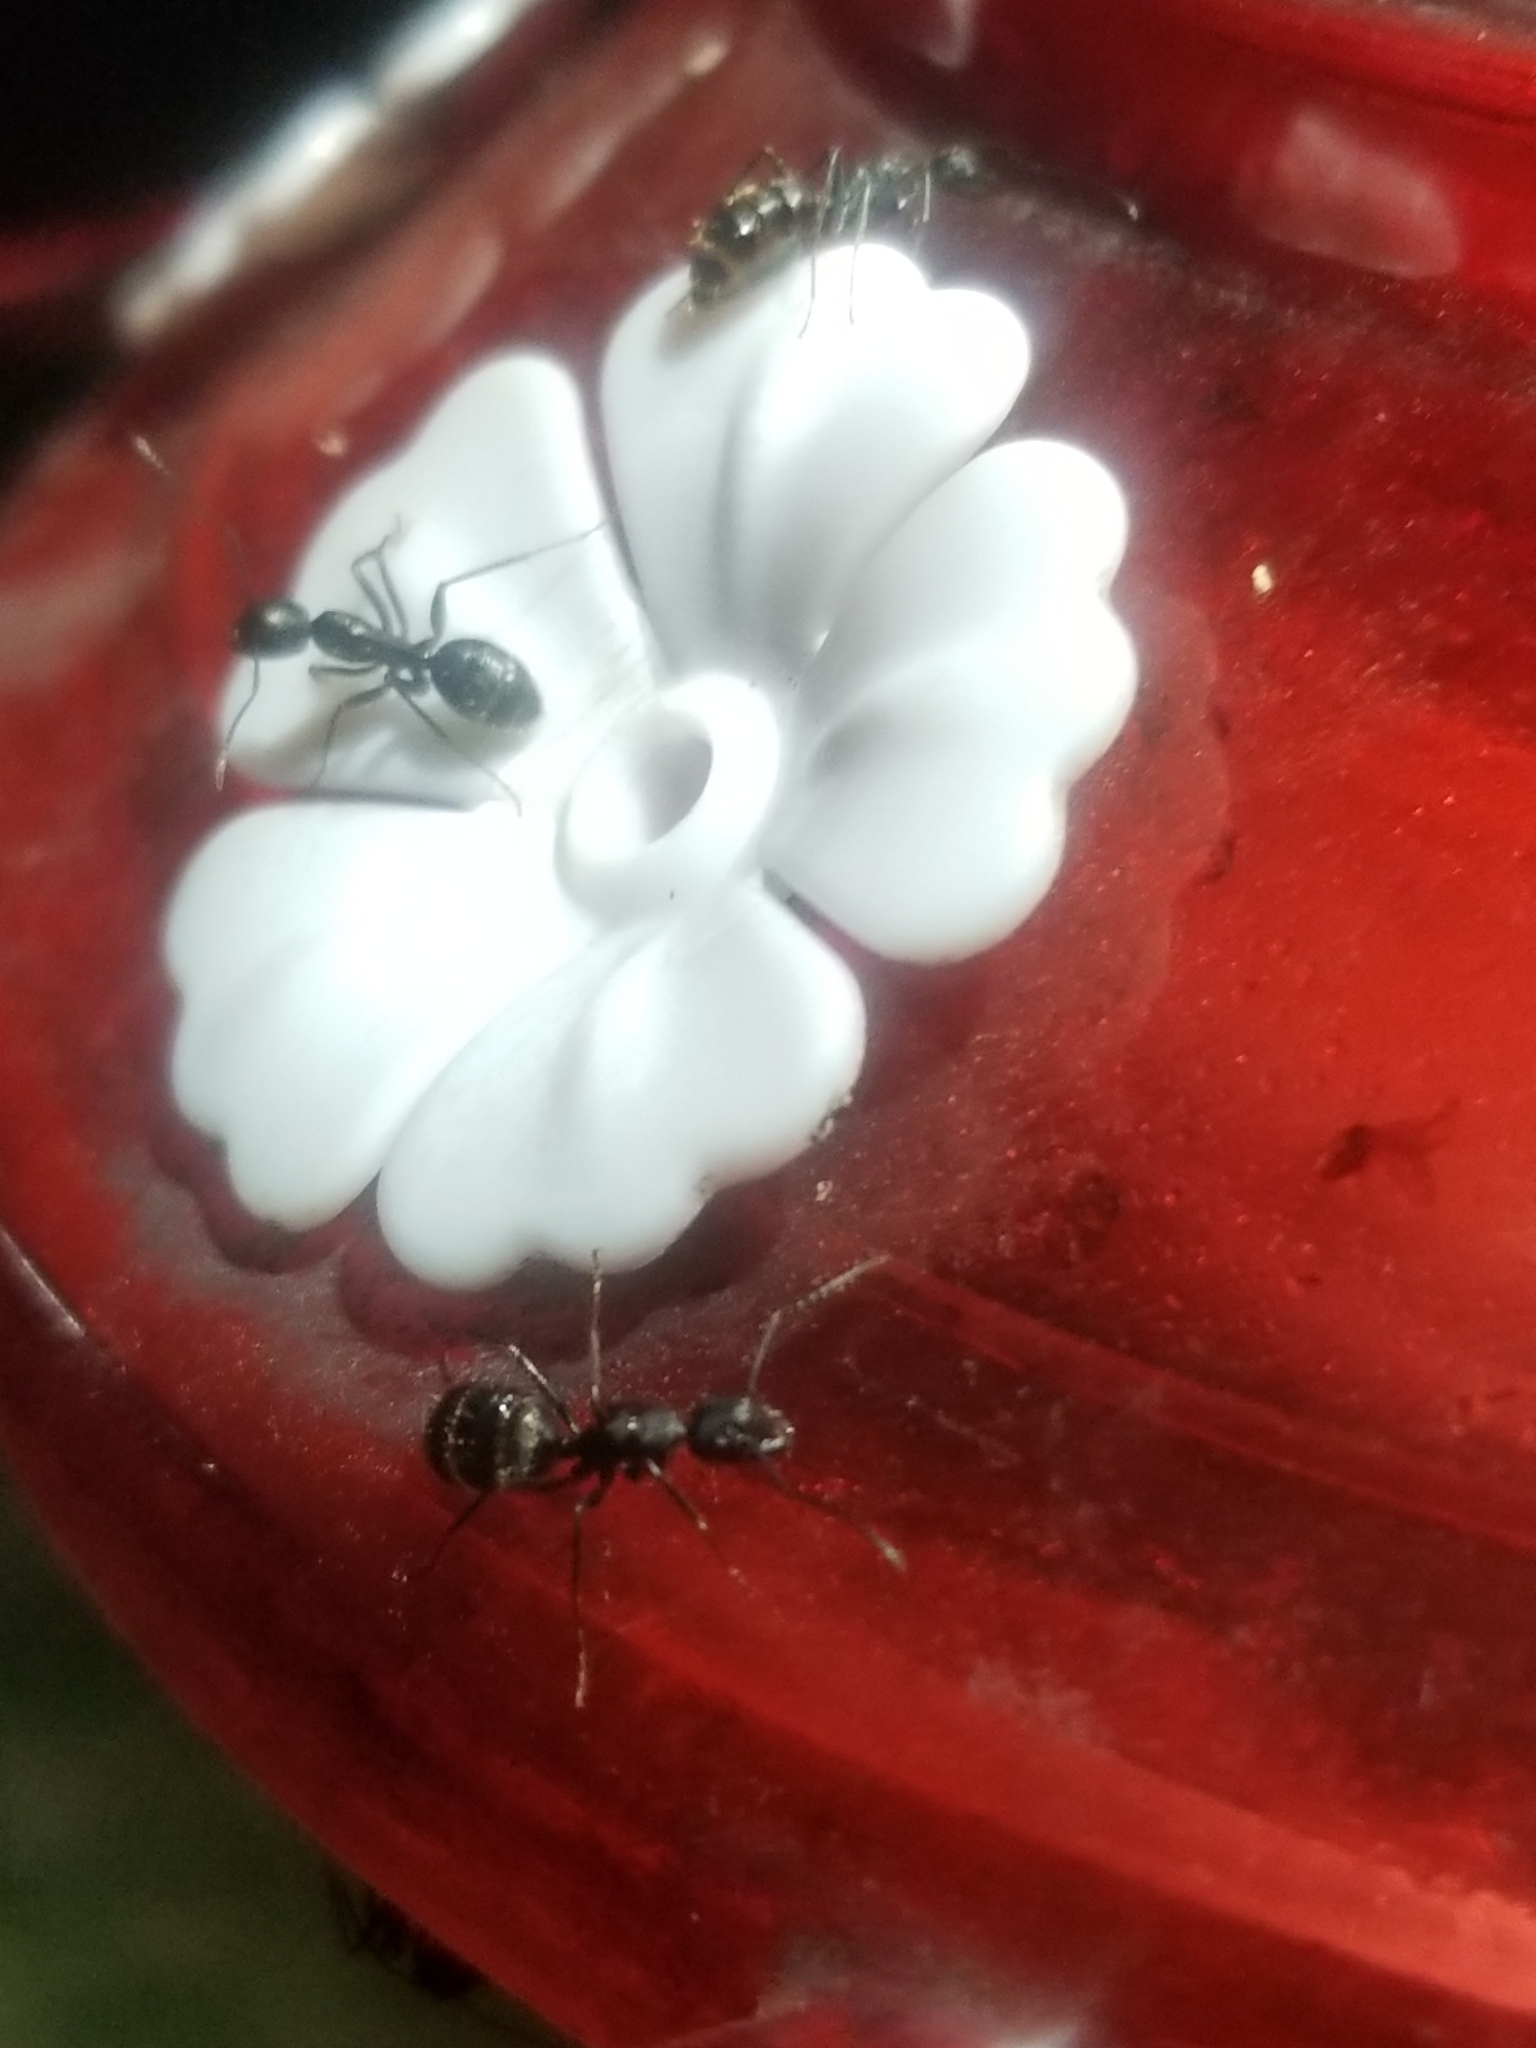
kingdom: Animalia
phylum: Arthropoda
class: Insecta
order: Hymenoptera
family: Formicidae
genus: Camponotus
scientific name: Camponotus pennsylvanicus
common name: Black carpenter ant
